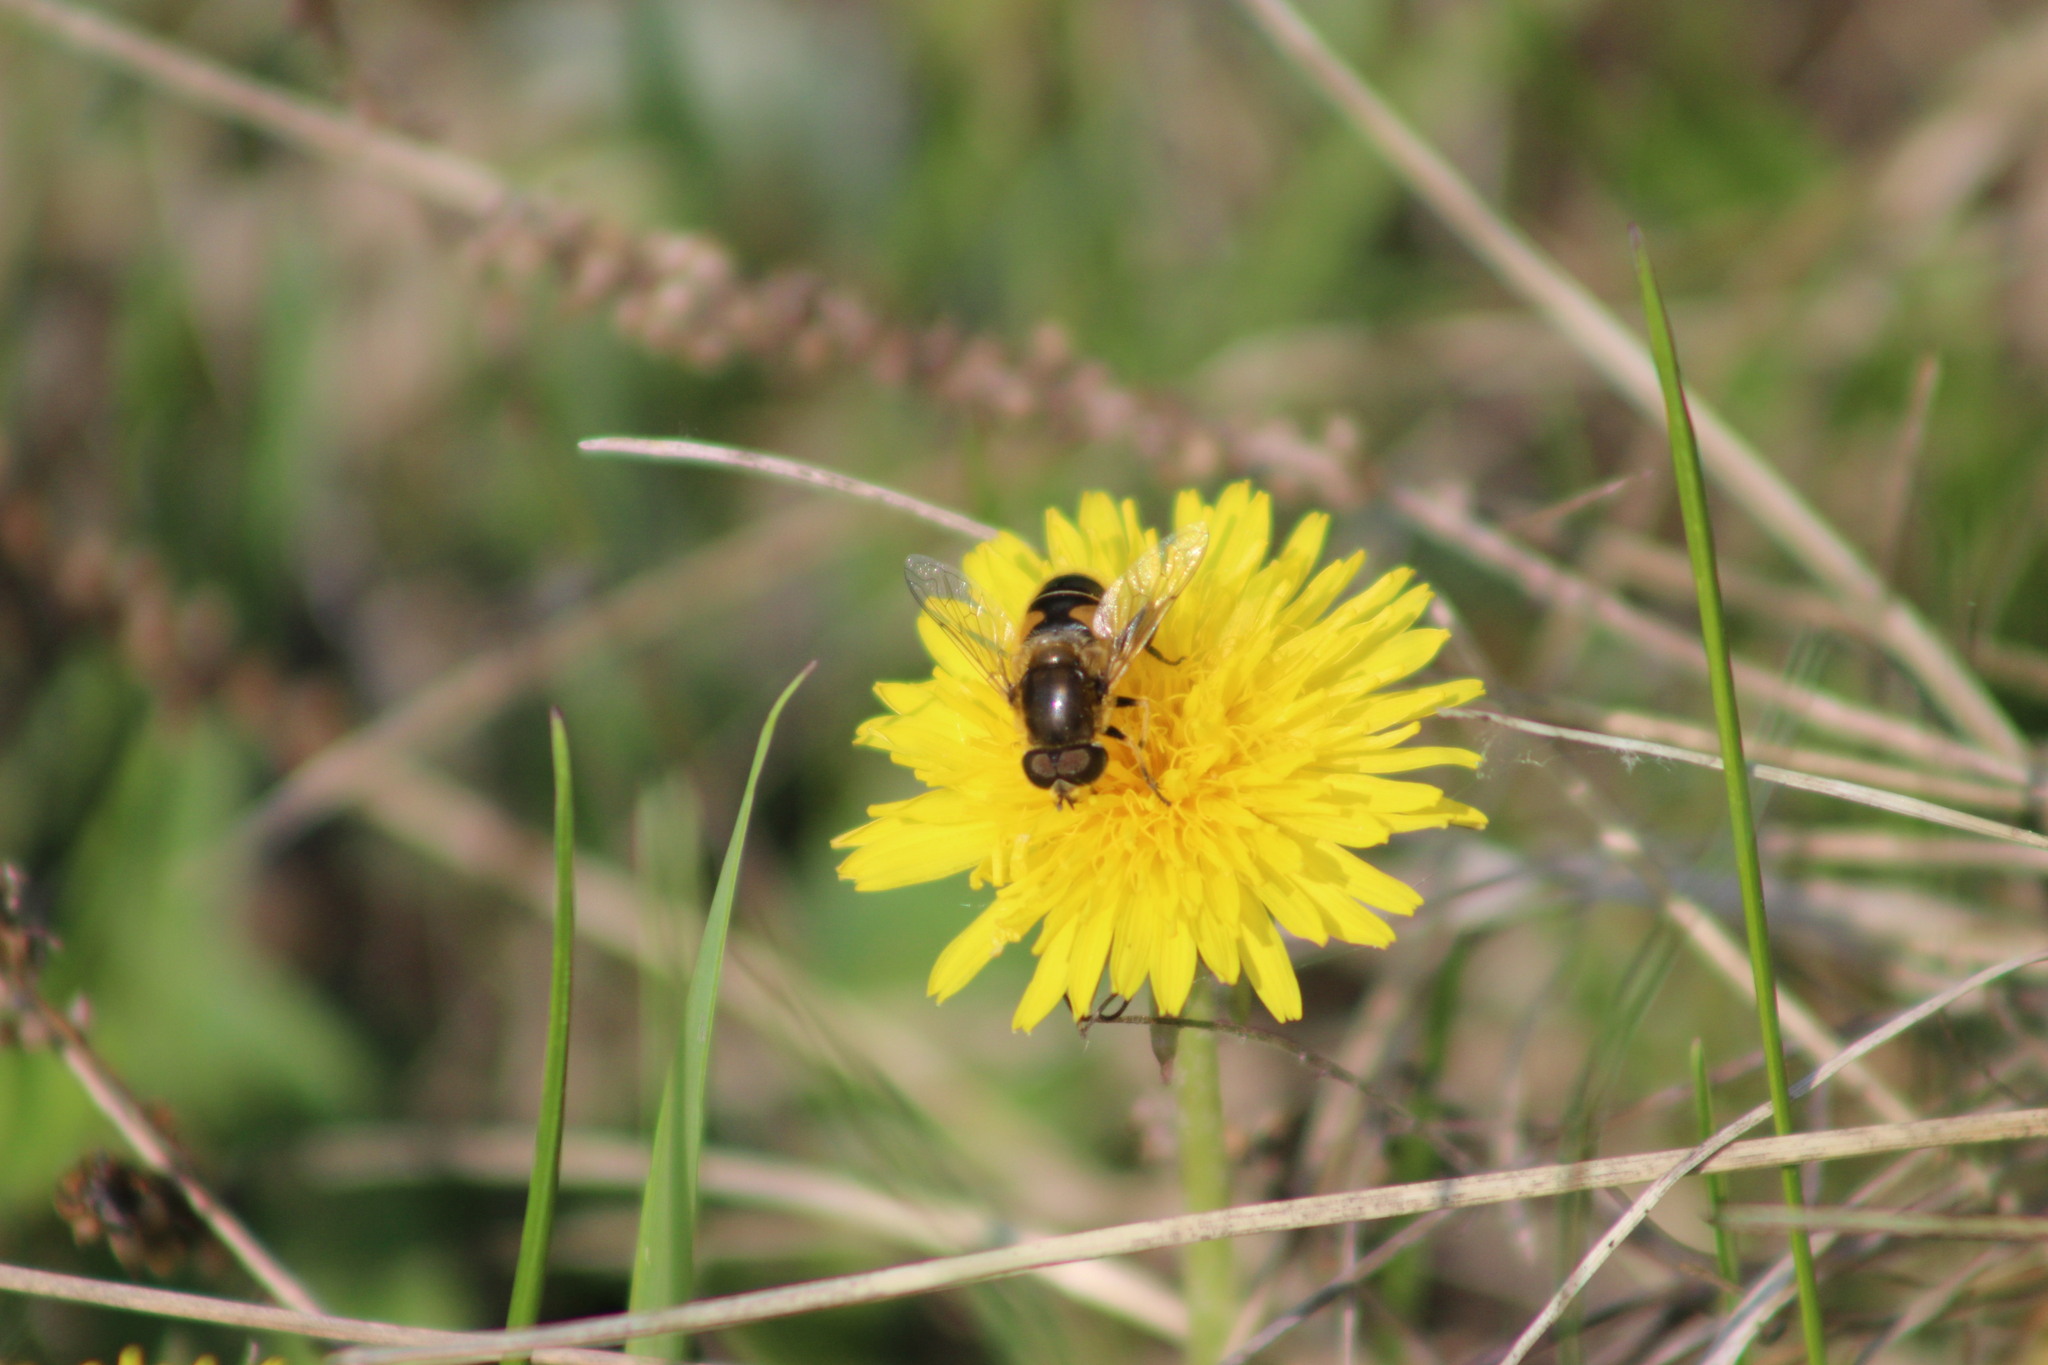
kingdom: Animalia
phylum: Arthropoda
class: Insecta
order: Diptera
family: Syrphidae
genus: Eristalis
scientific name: Eristalis nemorum
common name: Orange-spined drone fly
